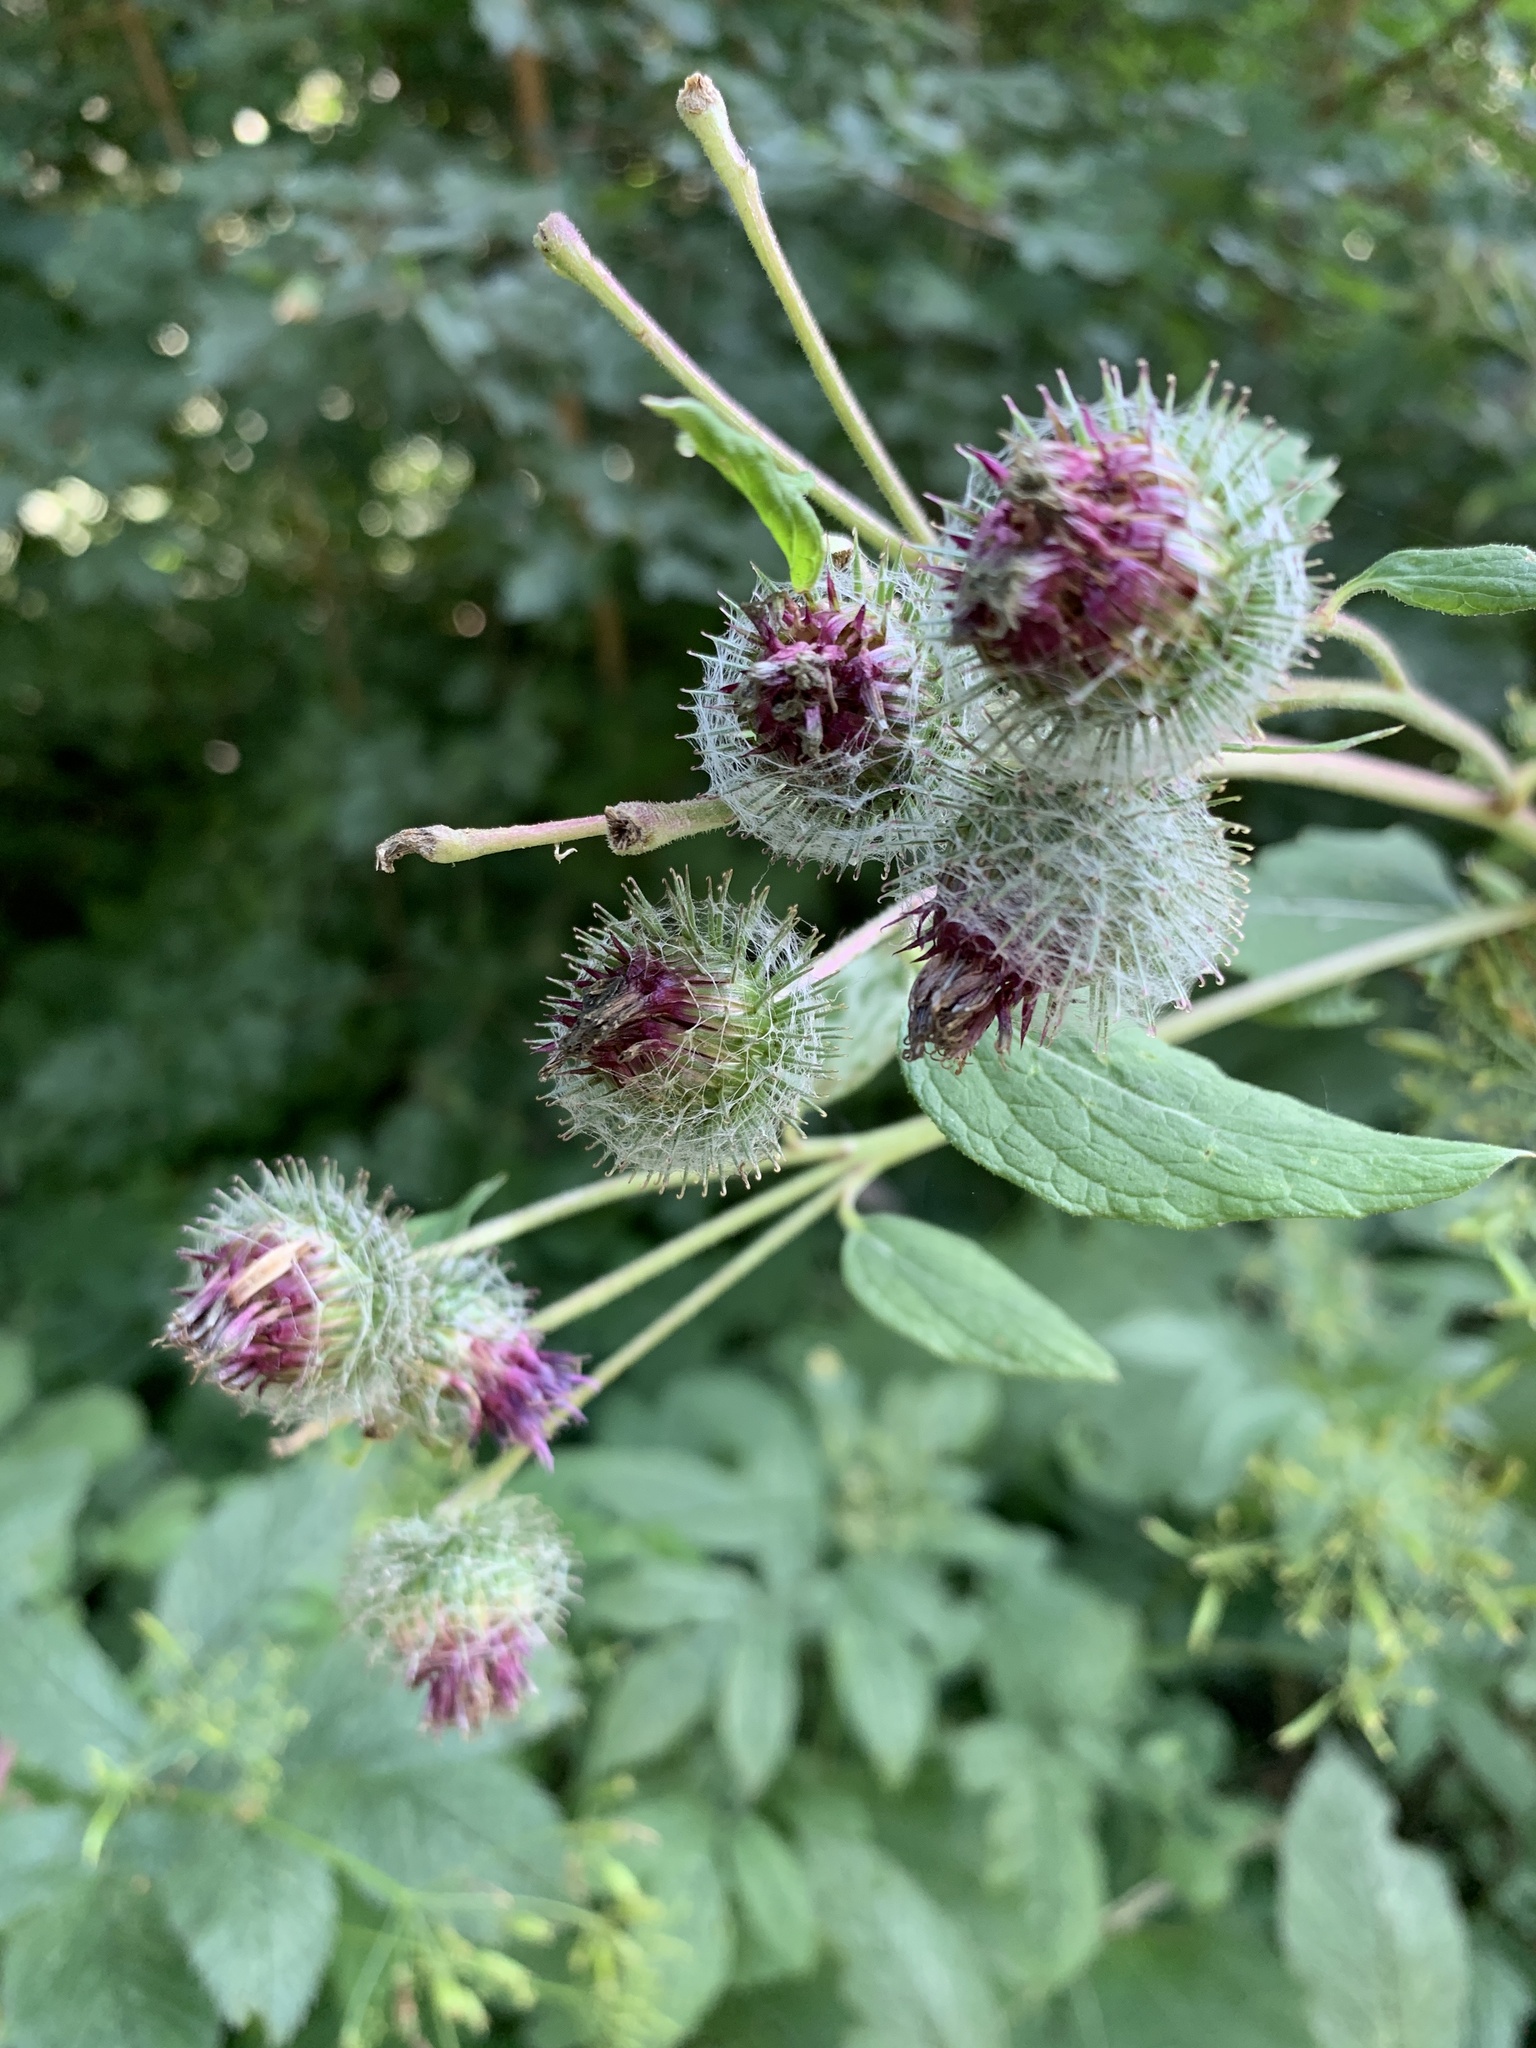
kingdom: Plantae
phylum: Tracheophyta
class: Magnoliopsida
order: Asterales
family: Asteraceae
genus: Arctium
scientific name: Arctium tomentosum
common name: Woolly burdock
